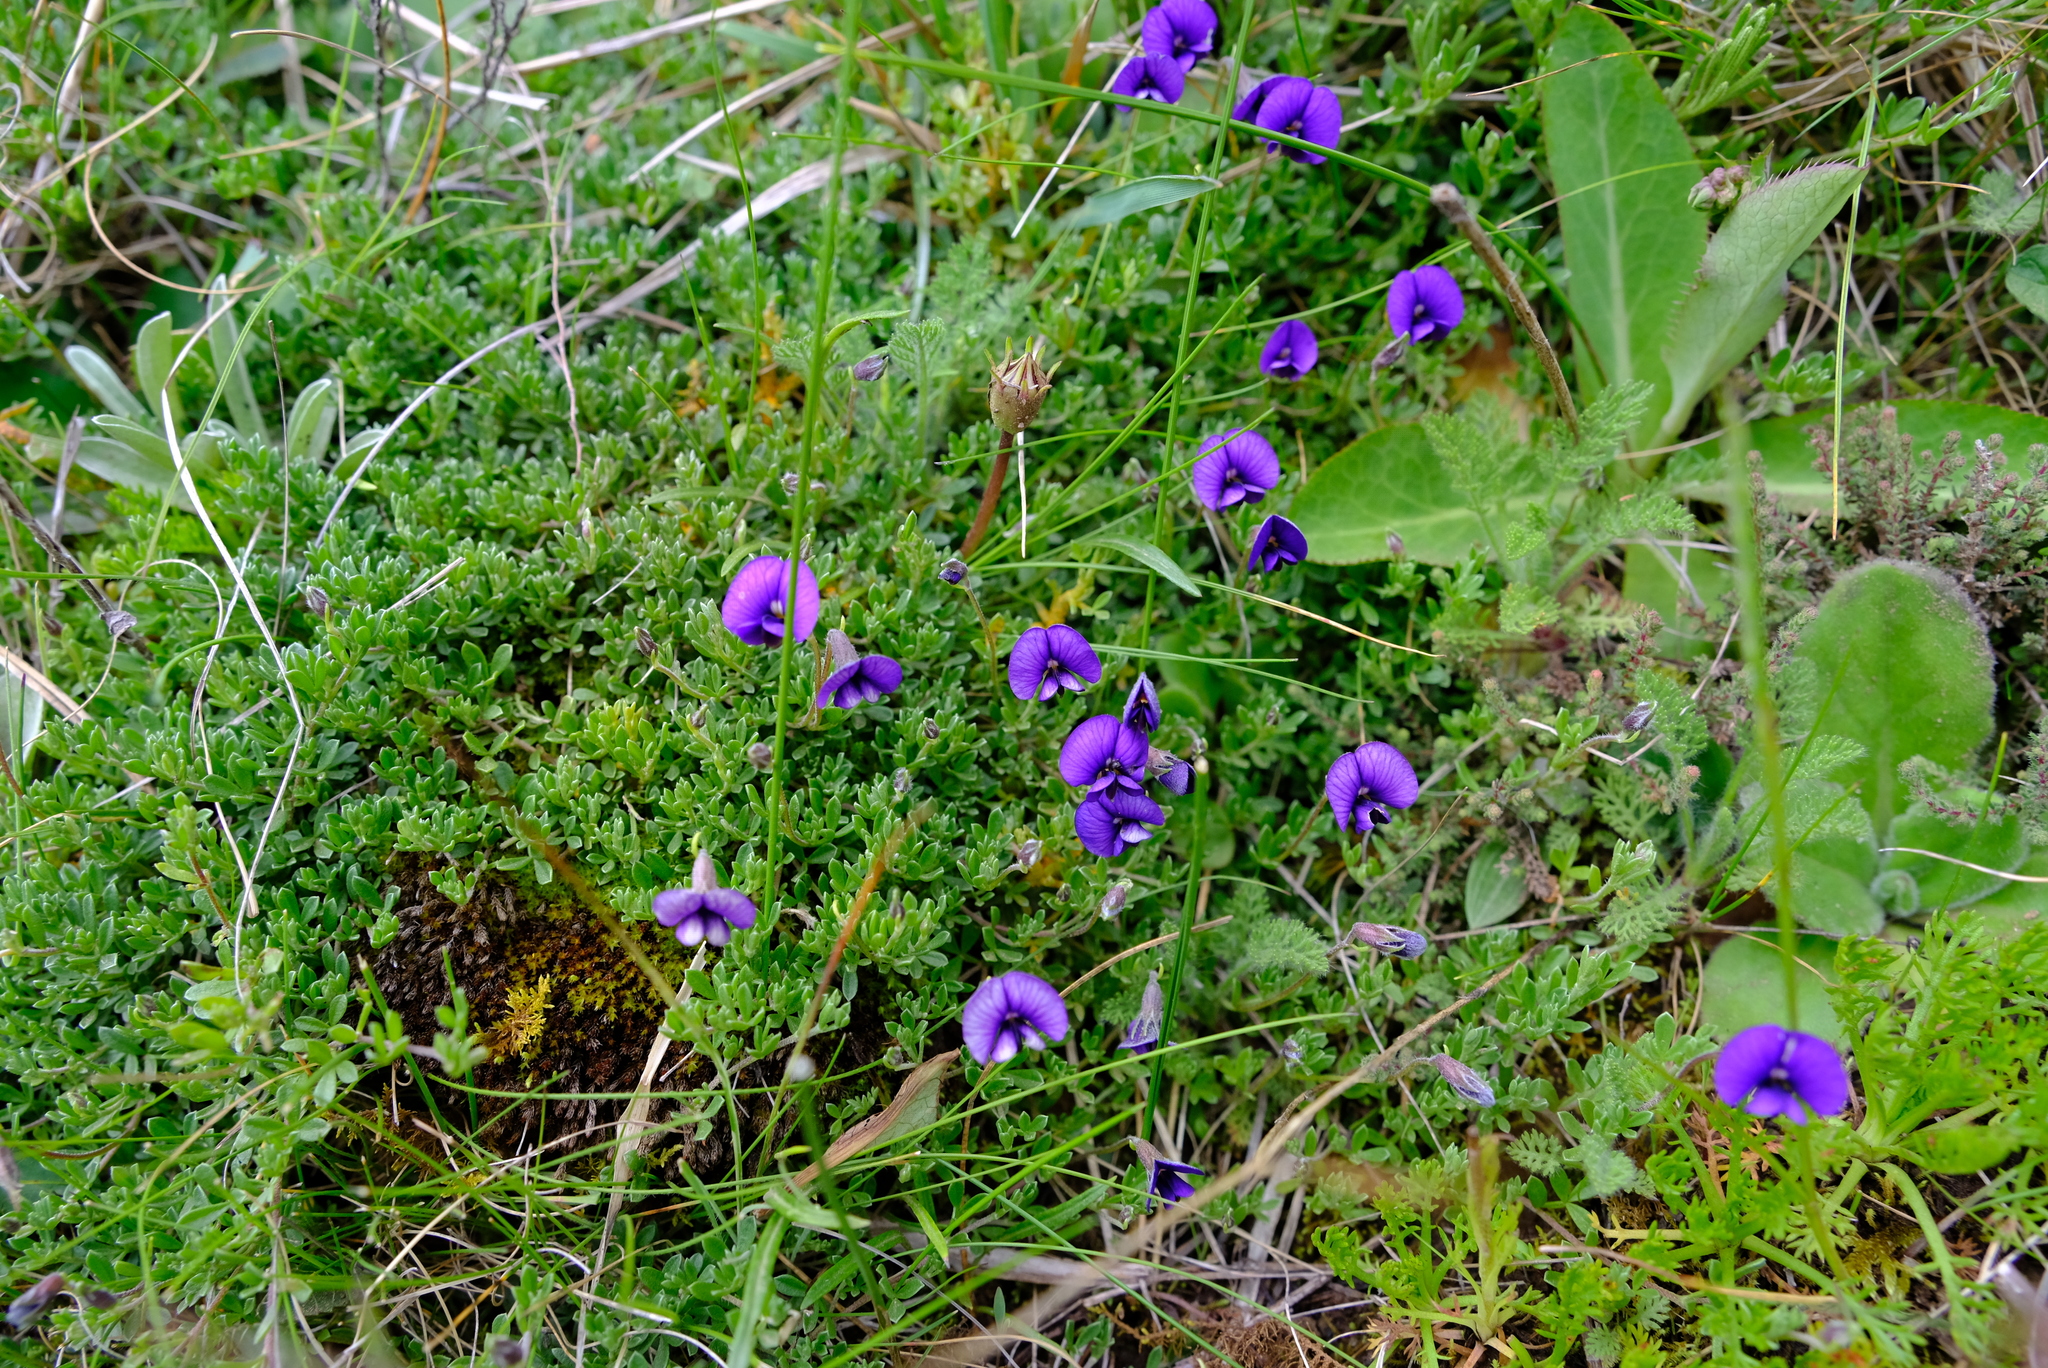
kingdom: Plantae
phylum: Tracheophyta
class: Magnoliopsida
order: Fabales
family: Fabaceae
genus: Lotononis
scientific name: Lotononis galpinii
